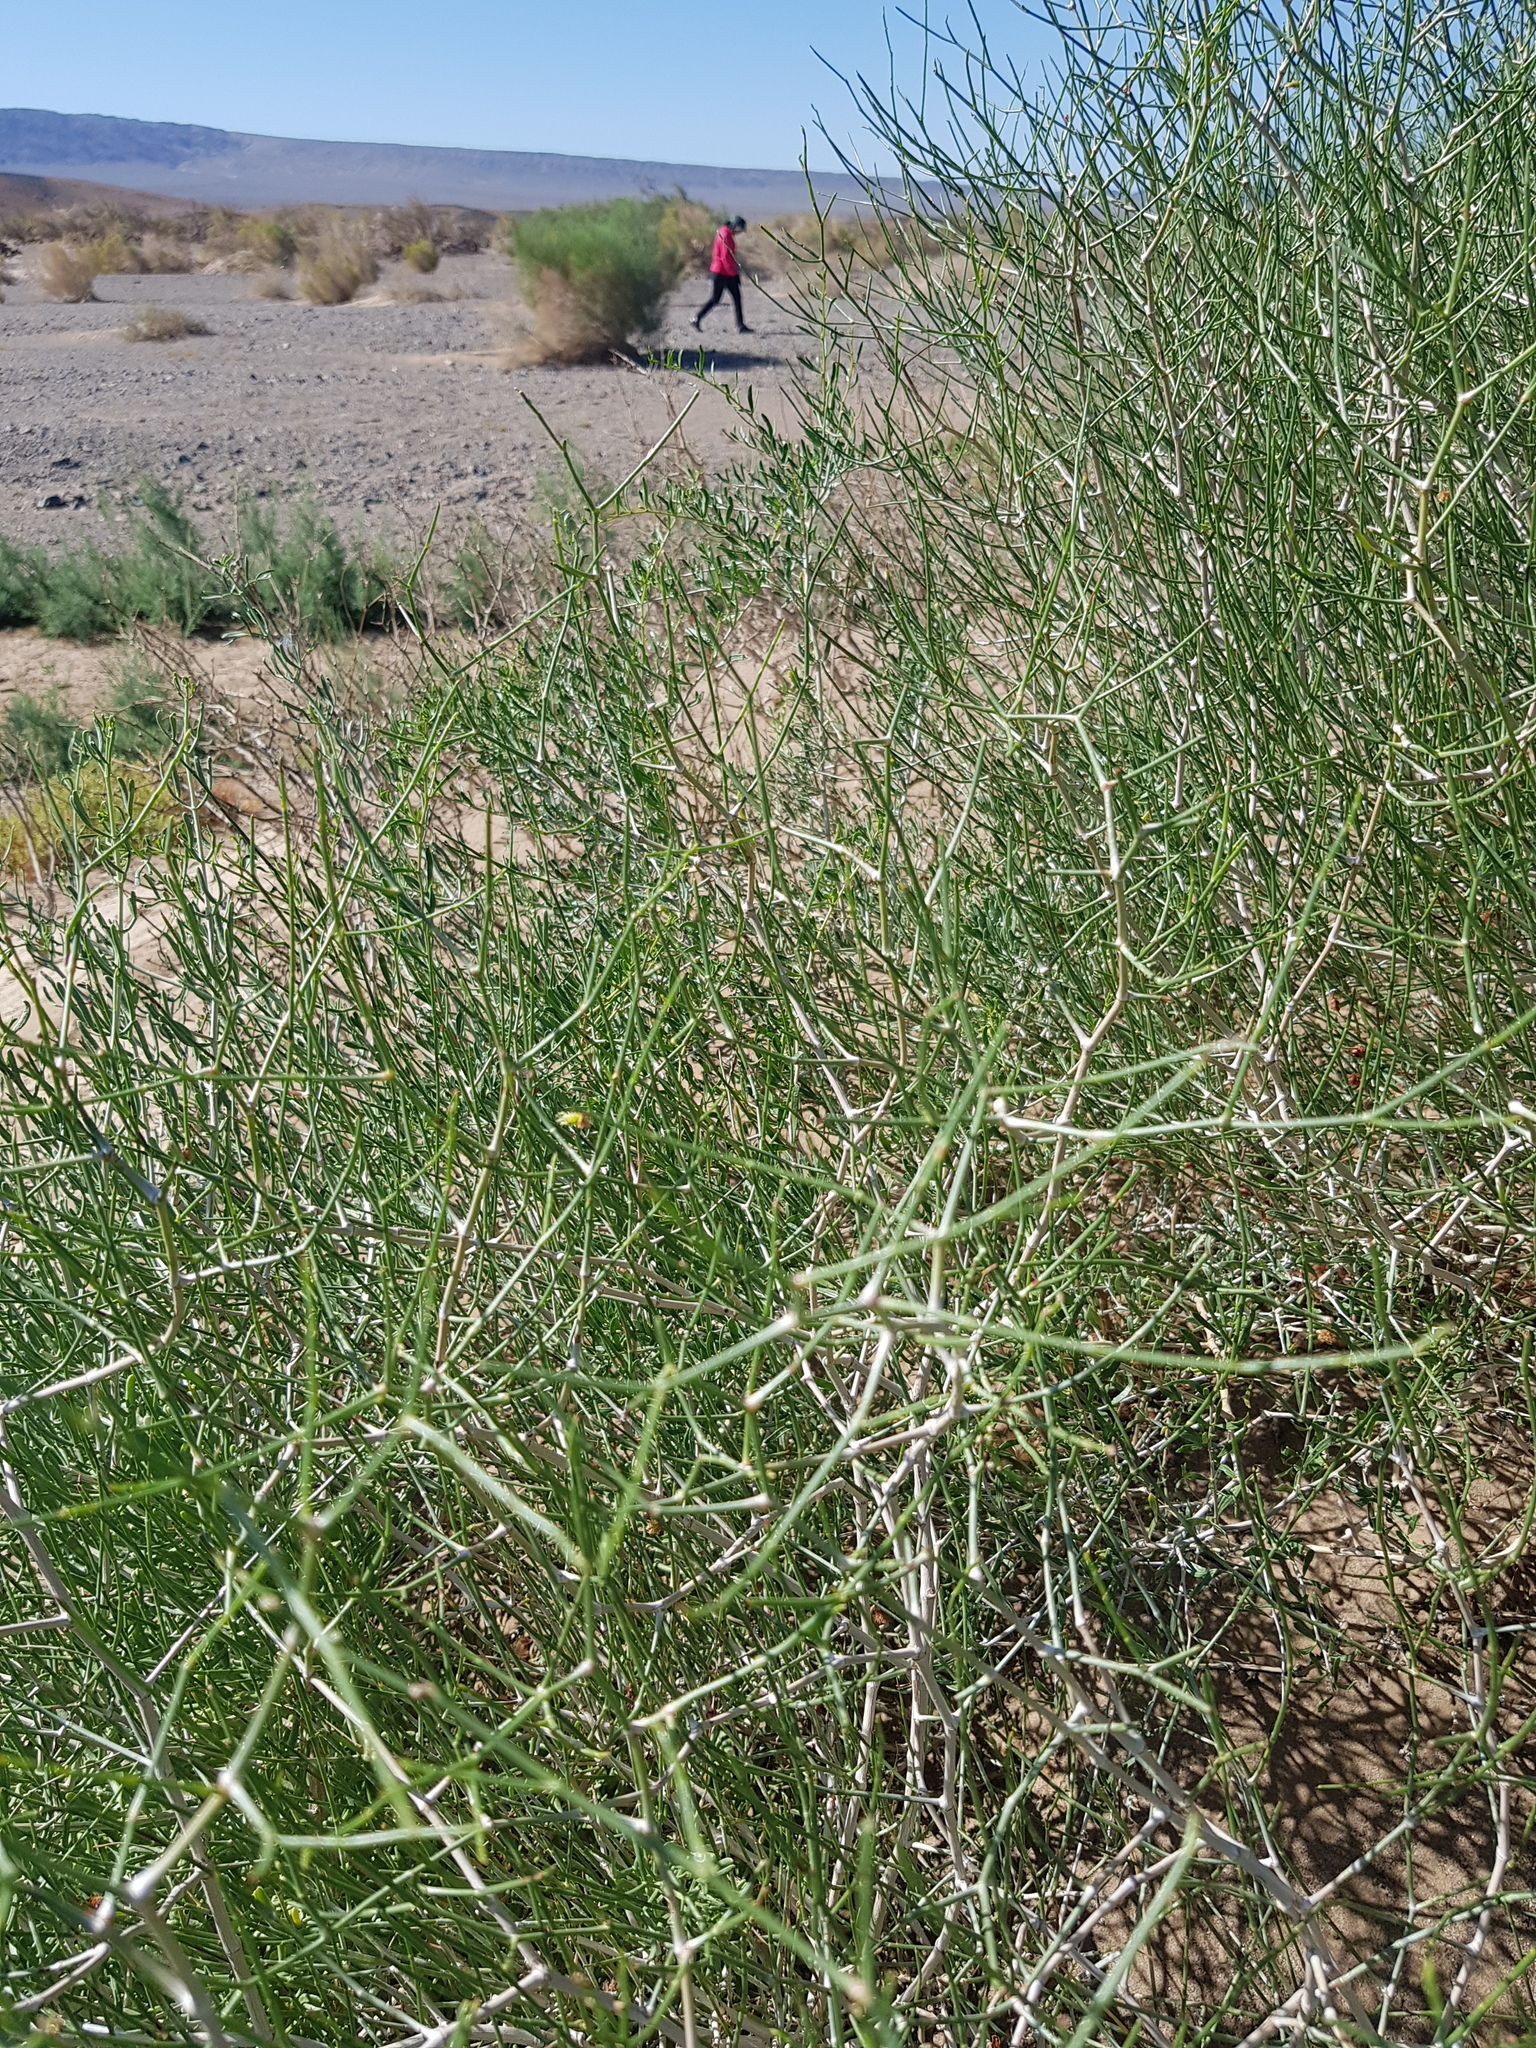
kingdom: Plantae
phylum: Tracheophyta
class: Magnoliopsida
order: Caryophyllales
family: Polygonaceae
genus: Calligonum
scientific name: Calligonum mongolicum
